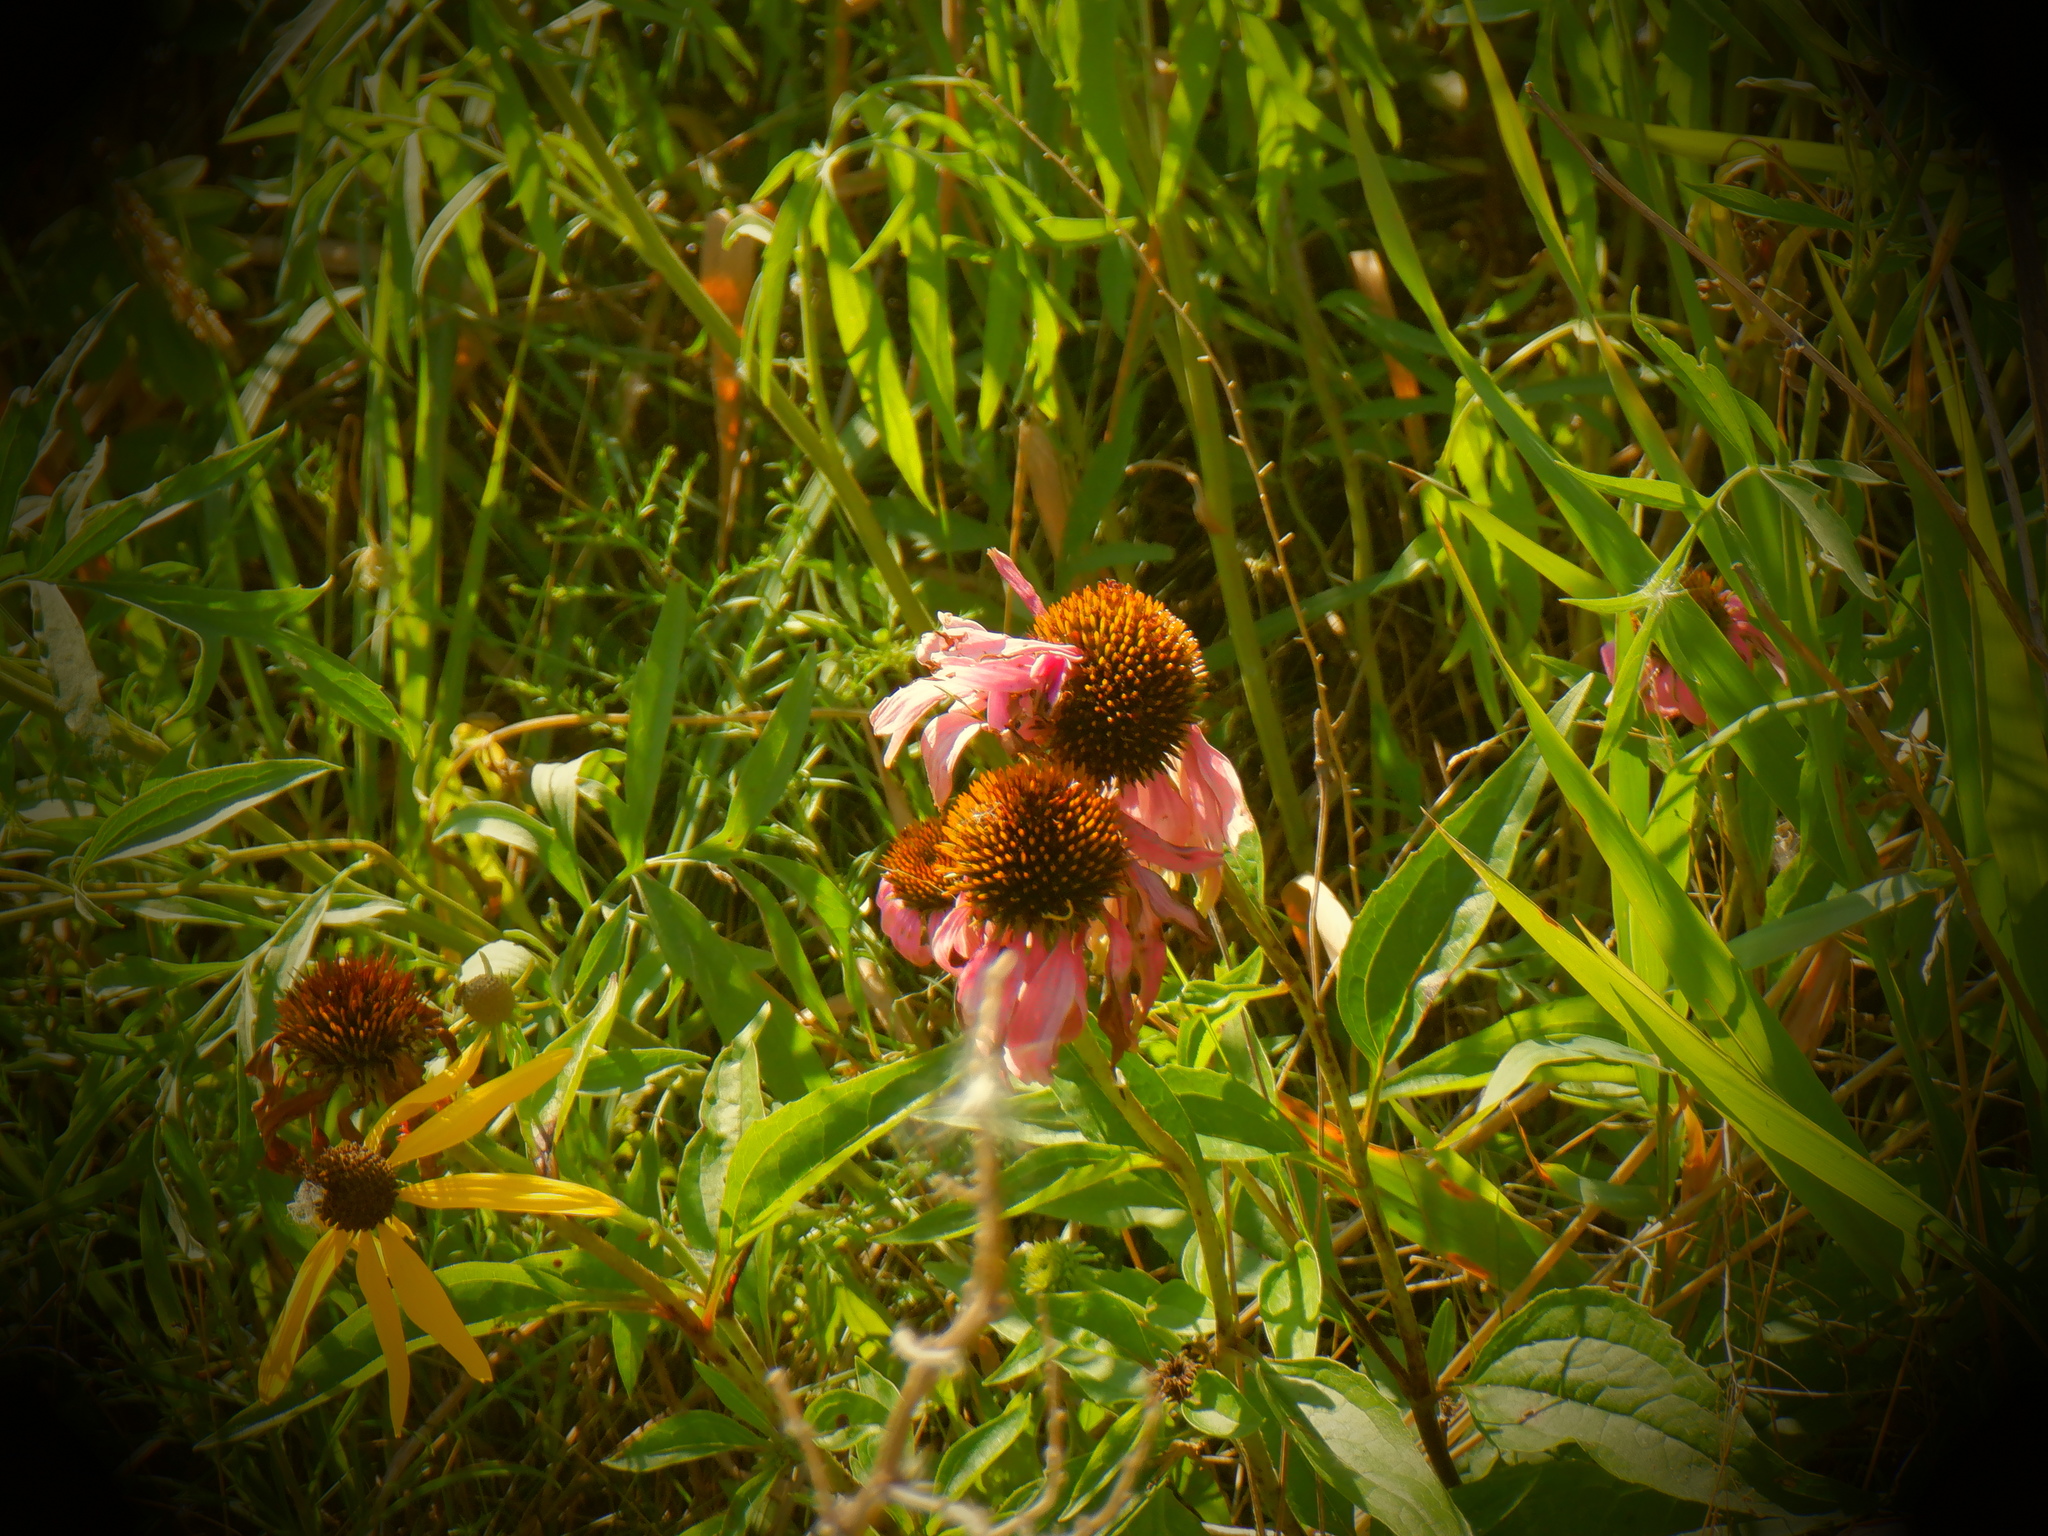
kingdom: Plantae
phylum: Tracheophyta
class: Magnoliopsida
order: Asterales
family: Asteraceae
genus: Echinacea
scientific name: Echinacea purpurea
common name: Broad-leaved purple coneflower
